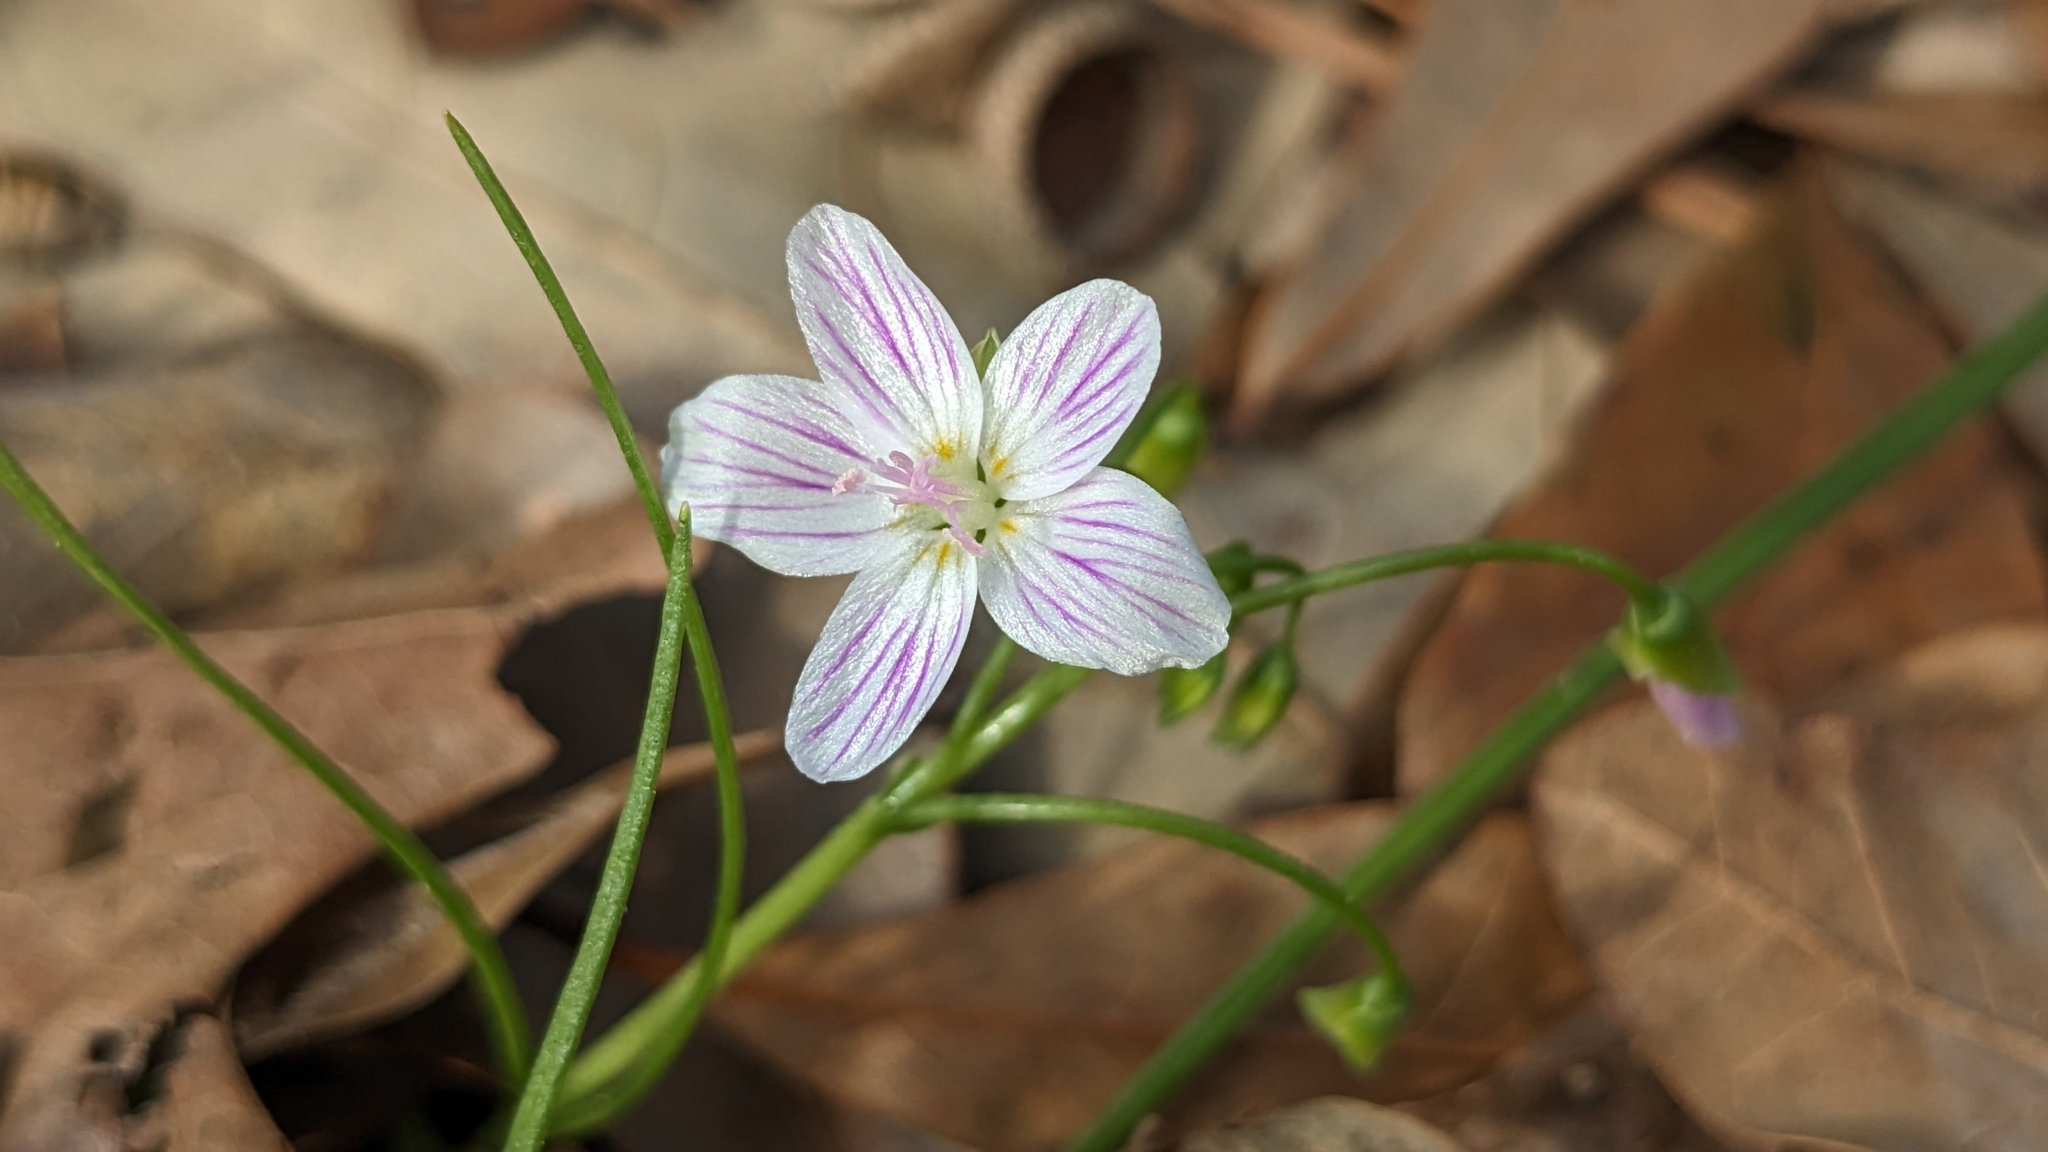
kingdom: Plantae
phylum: Tracheophyta
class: Magnoliopsida
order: Caryophyllales
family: Montiaceae
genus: Claytonia
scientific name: Claytonia virginica
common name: Virginia springbeauty
